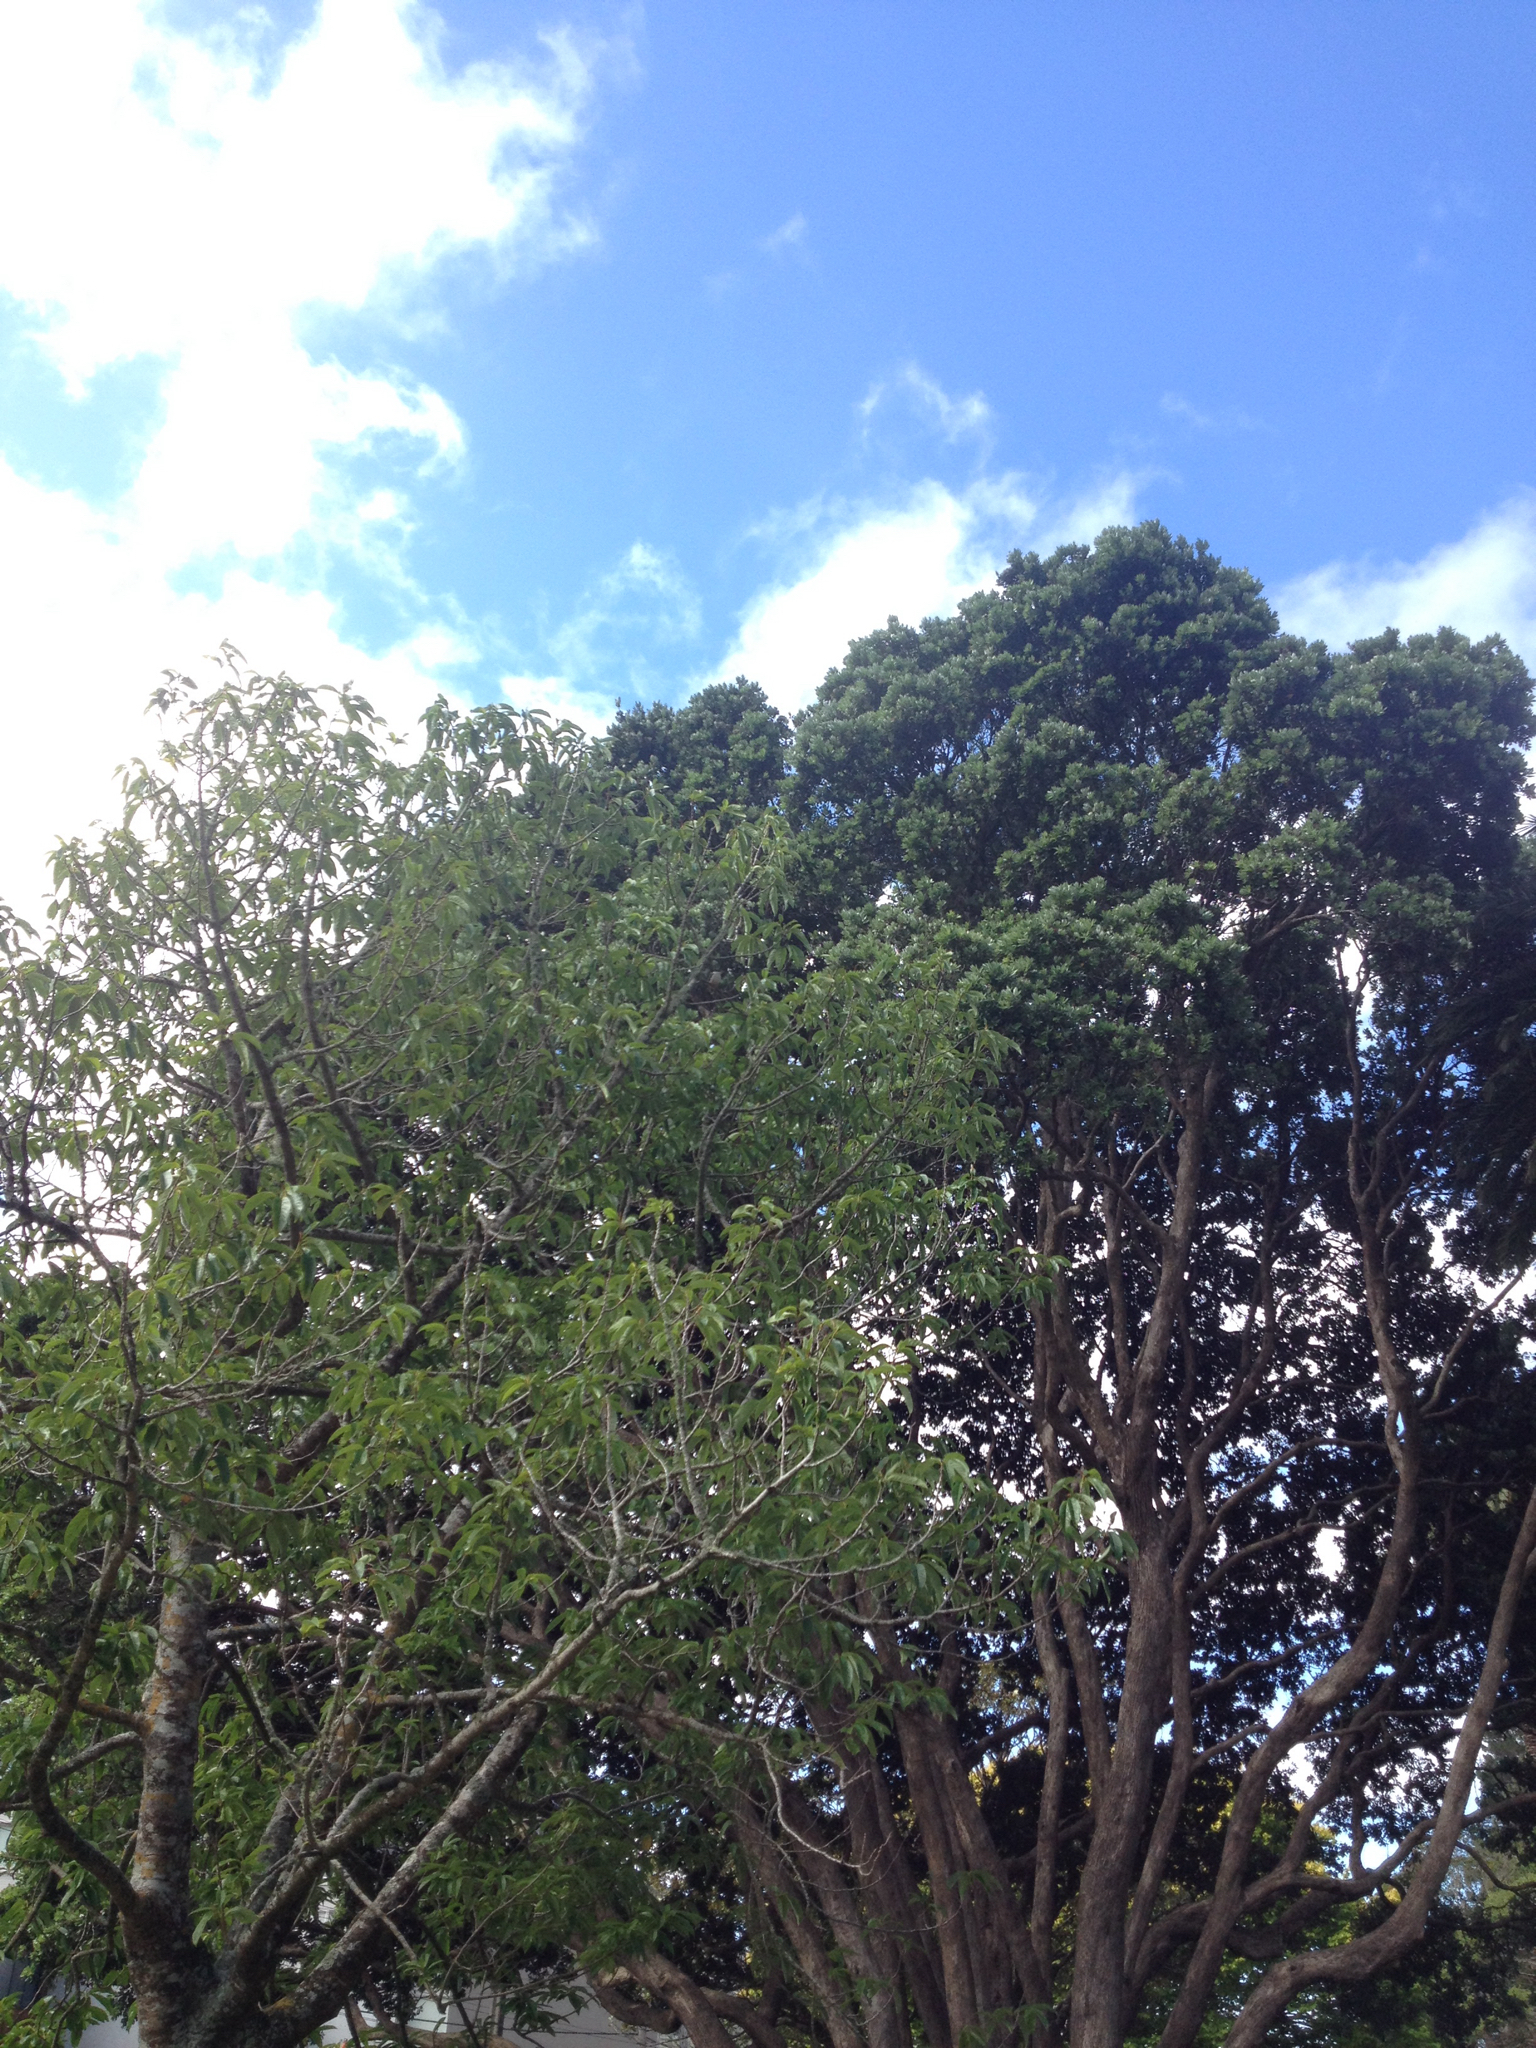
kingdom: Animalia
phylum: Chordata
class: Aves
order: Coraciiformes
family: Alcedinidae
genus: Todiramphus
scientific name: Todiramphus sanctus
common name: Sacred kingfisher
